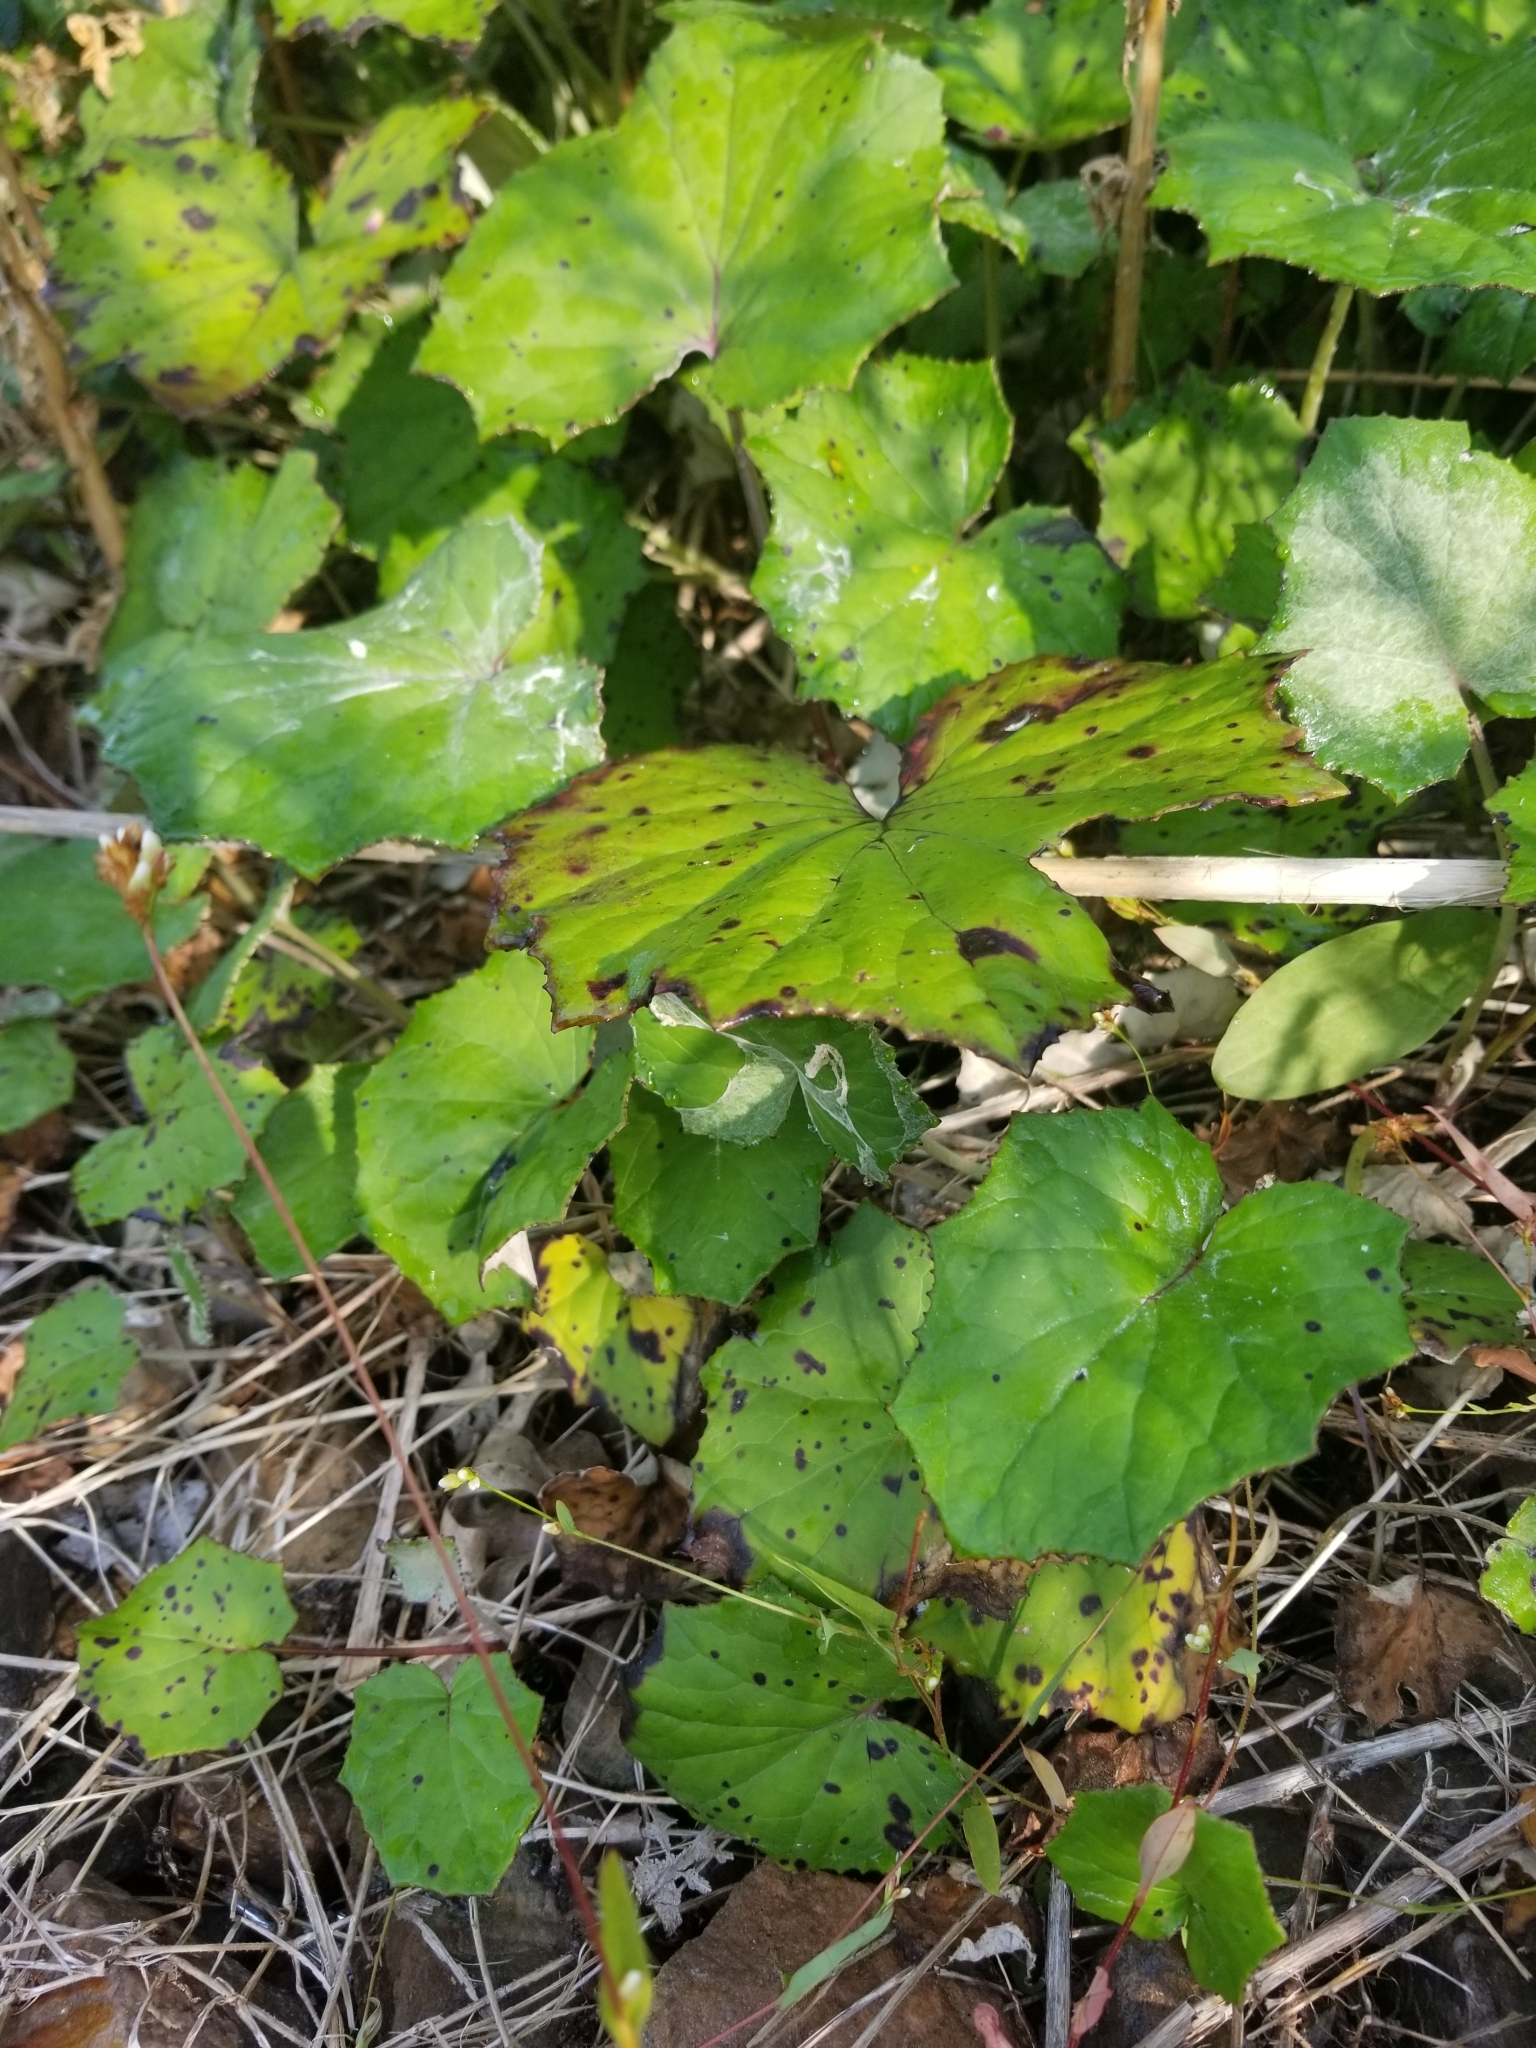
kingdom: Plantae
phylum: Tracheophyta
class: Magnoliopsida
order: Asterales
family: Asteraceae
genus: Tussilago
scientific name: Tussilago farfara
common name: Coltsfoot
